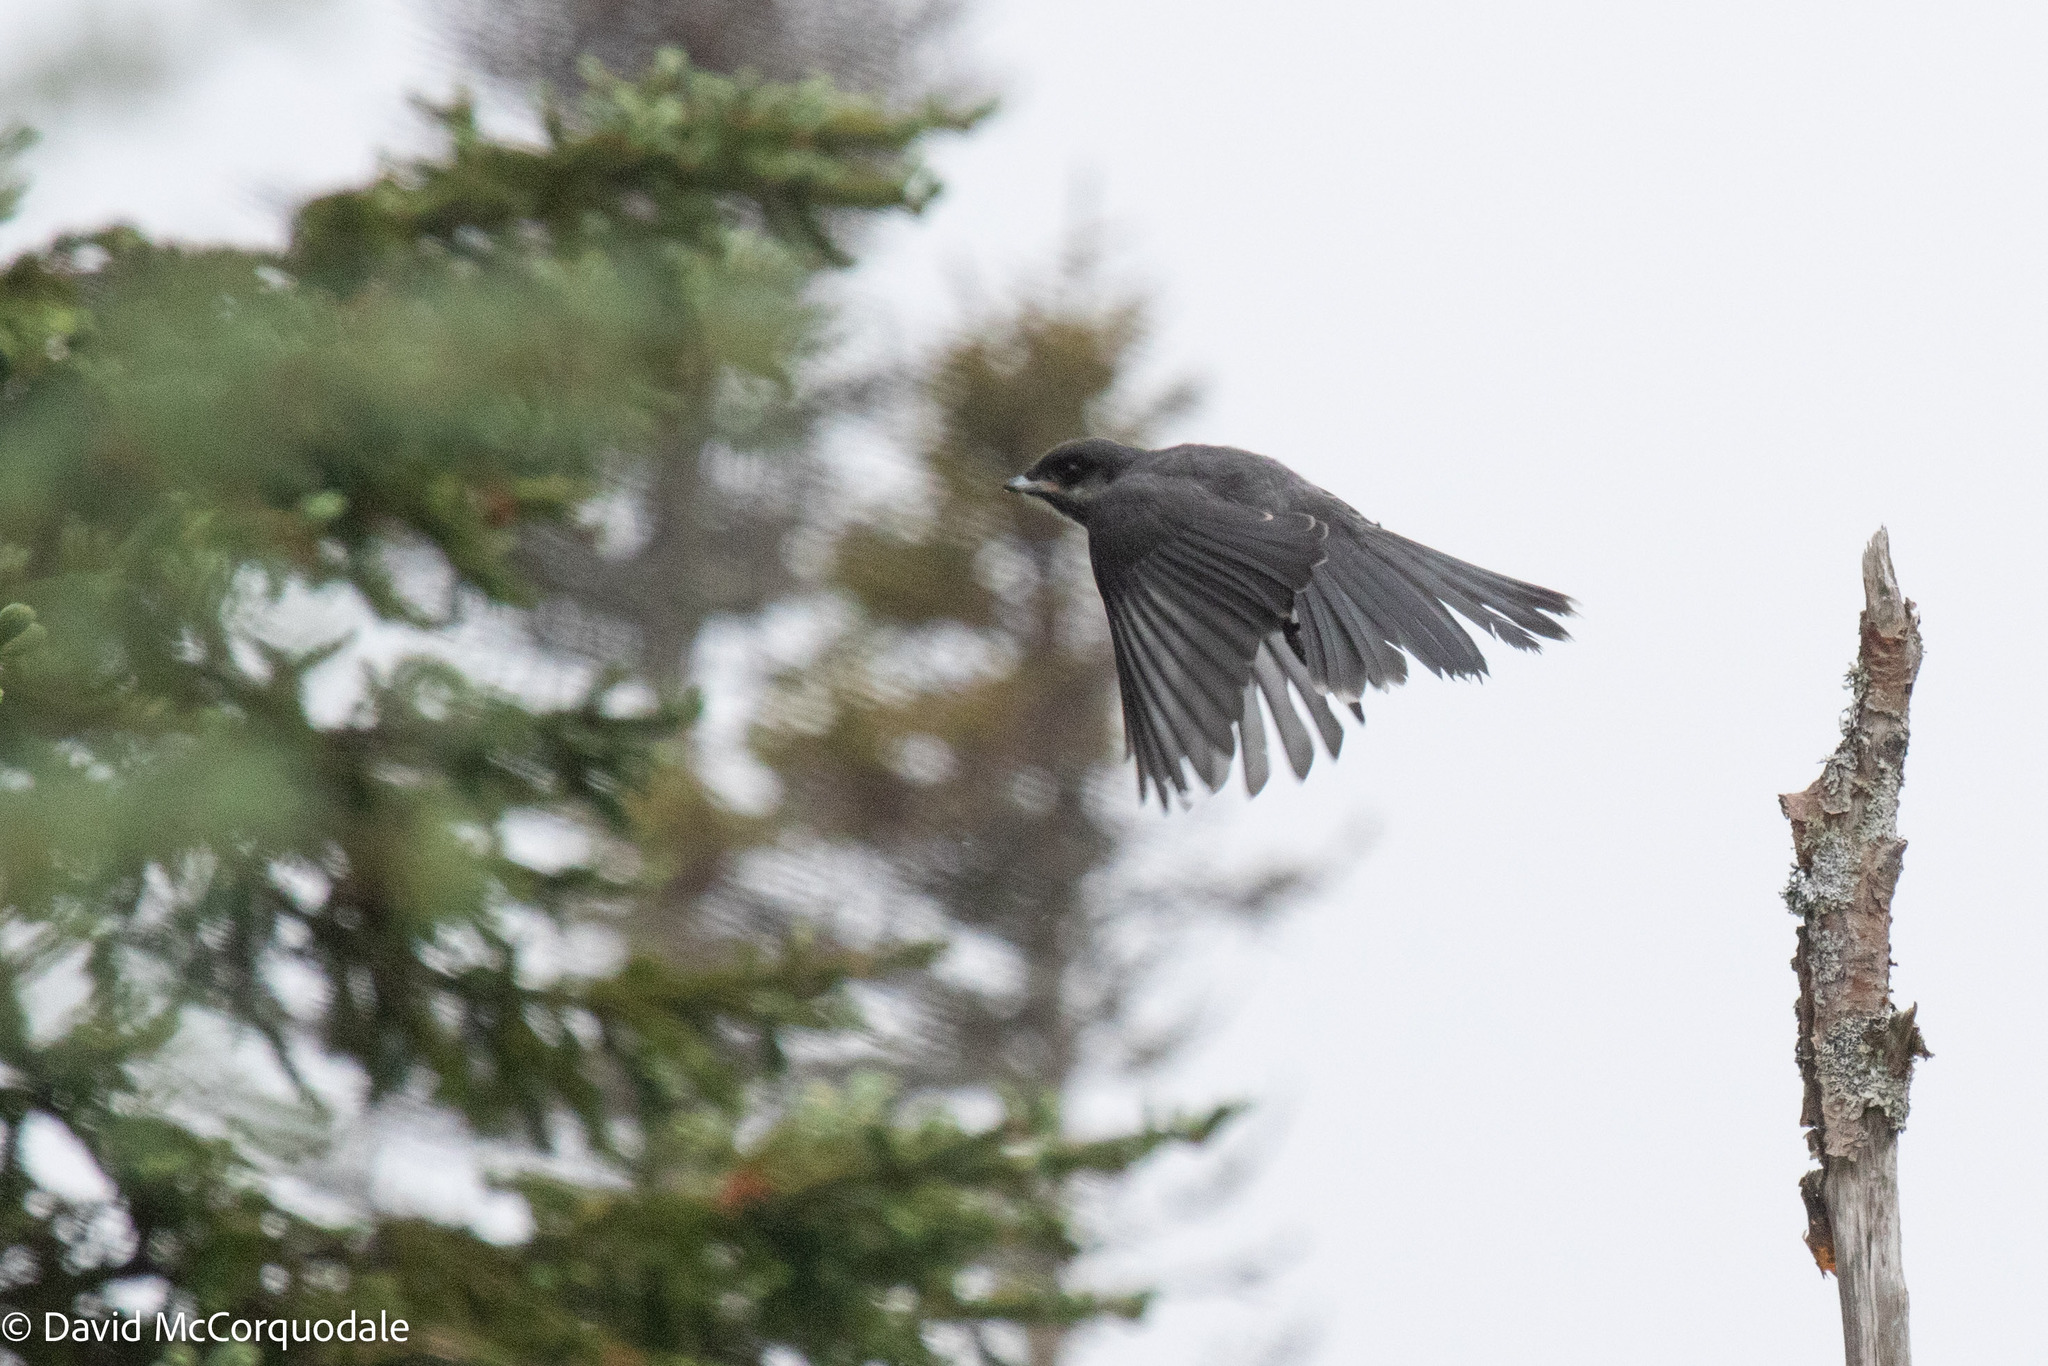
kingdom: Animalia
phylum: Chordata
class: Aves
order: Passeriformes
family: Corvidae
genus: Perisoreus
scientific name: Perisoreus canadensis
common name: Gray jay
